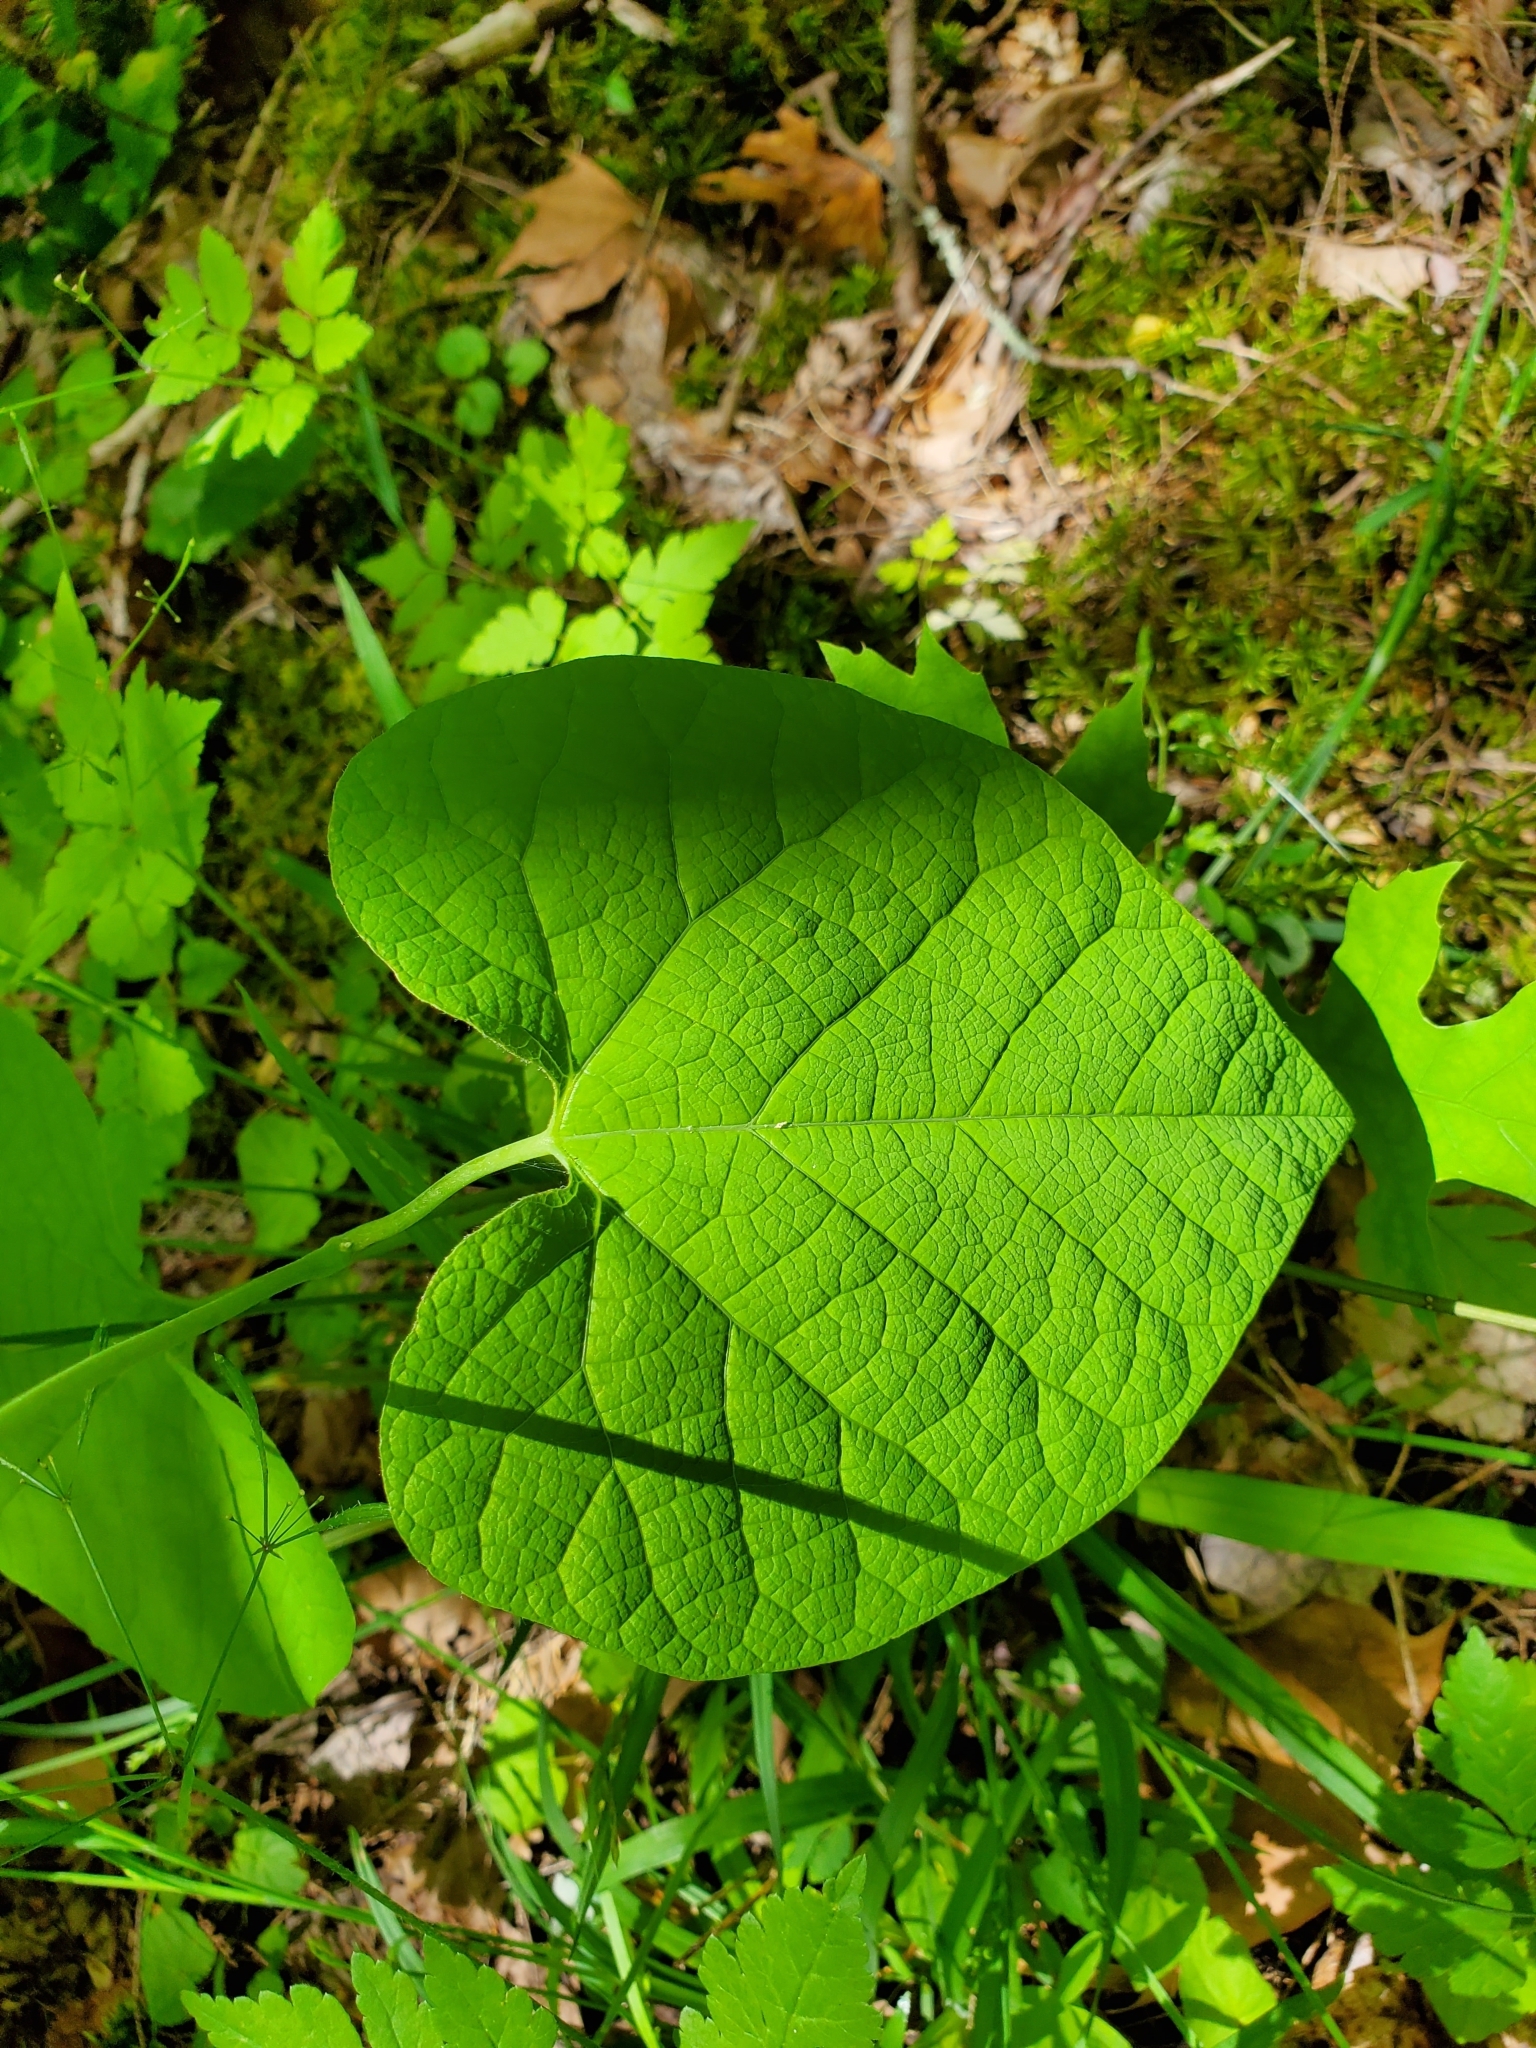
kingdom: Plantae
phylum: Tracheophyta
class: Magnoliopsida
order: Piperales
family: Aristolochiaceae
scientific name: Aristolochiaceae
